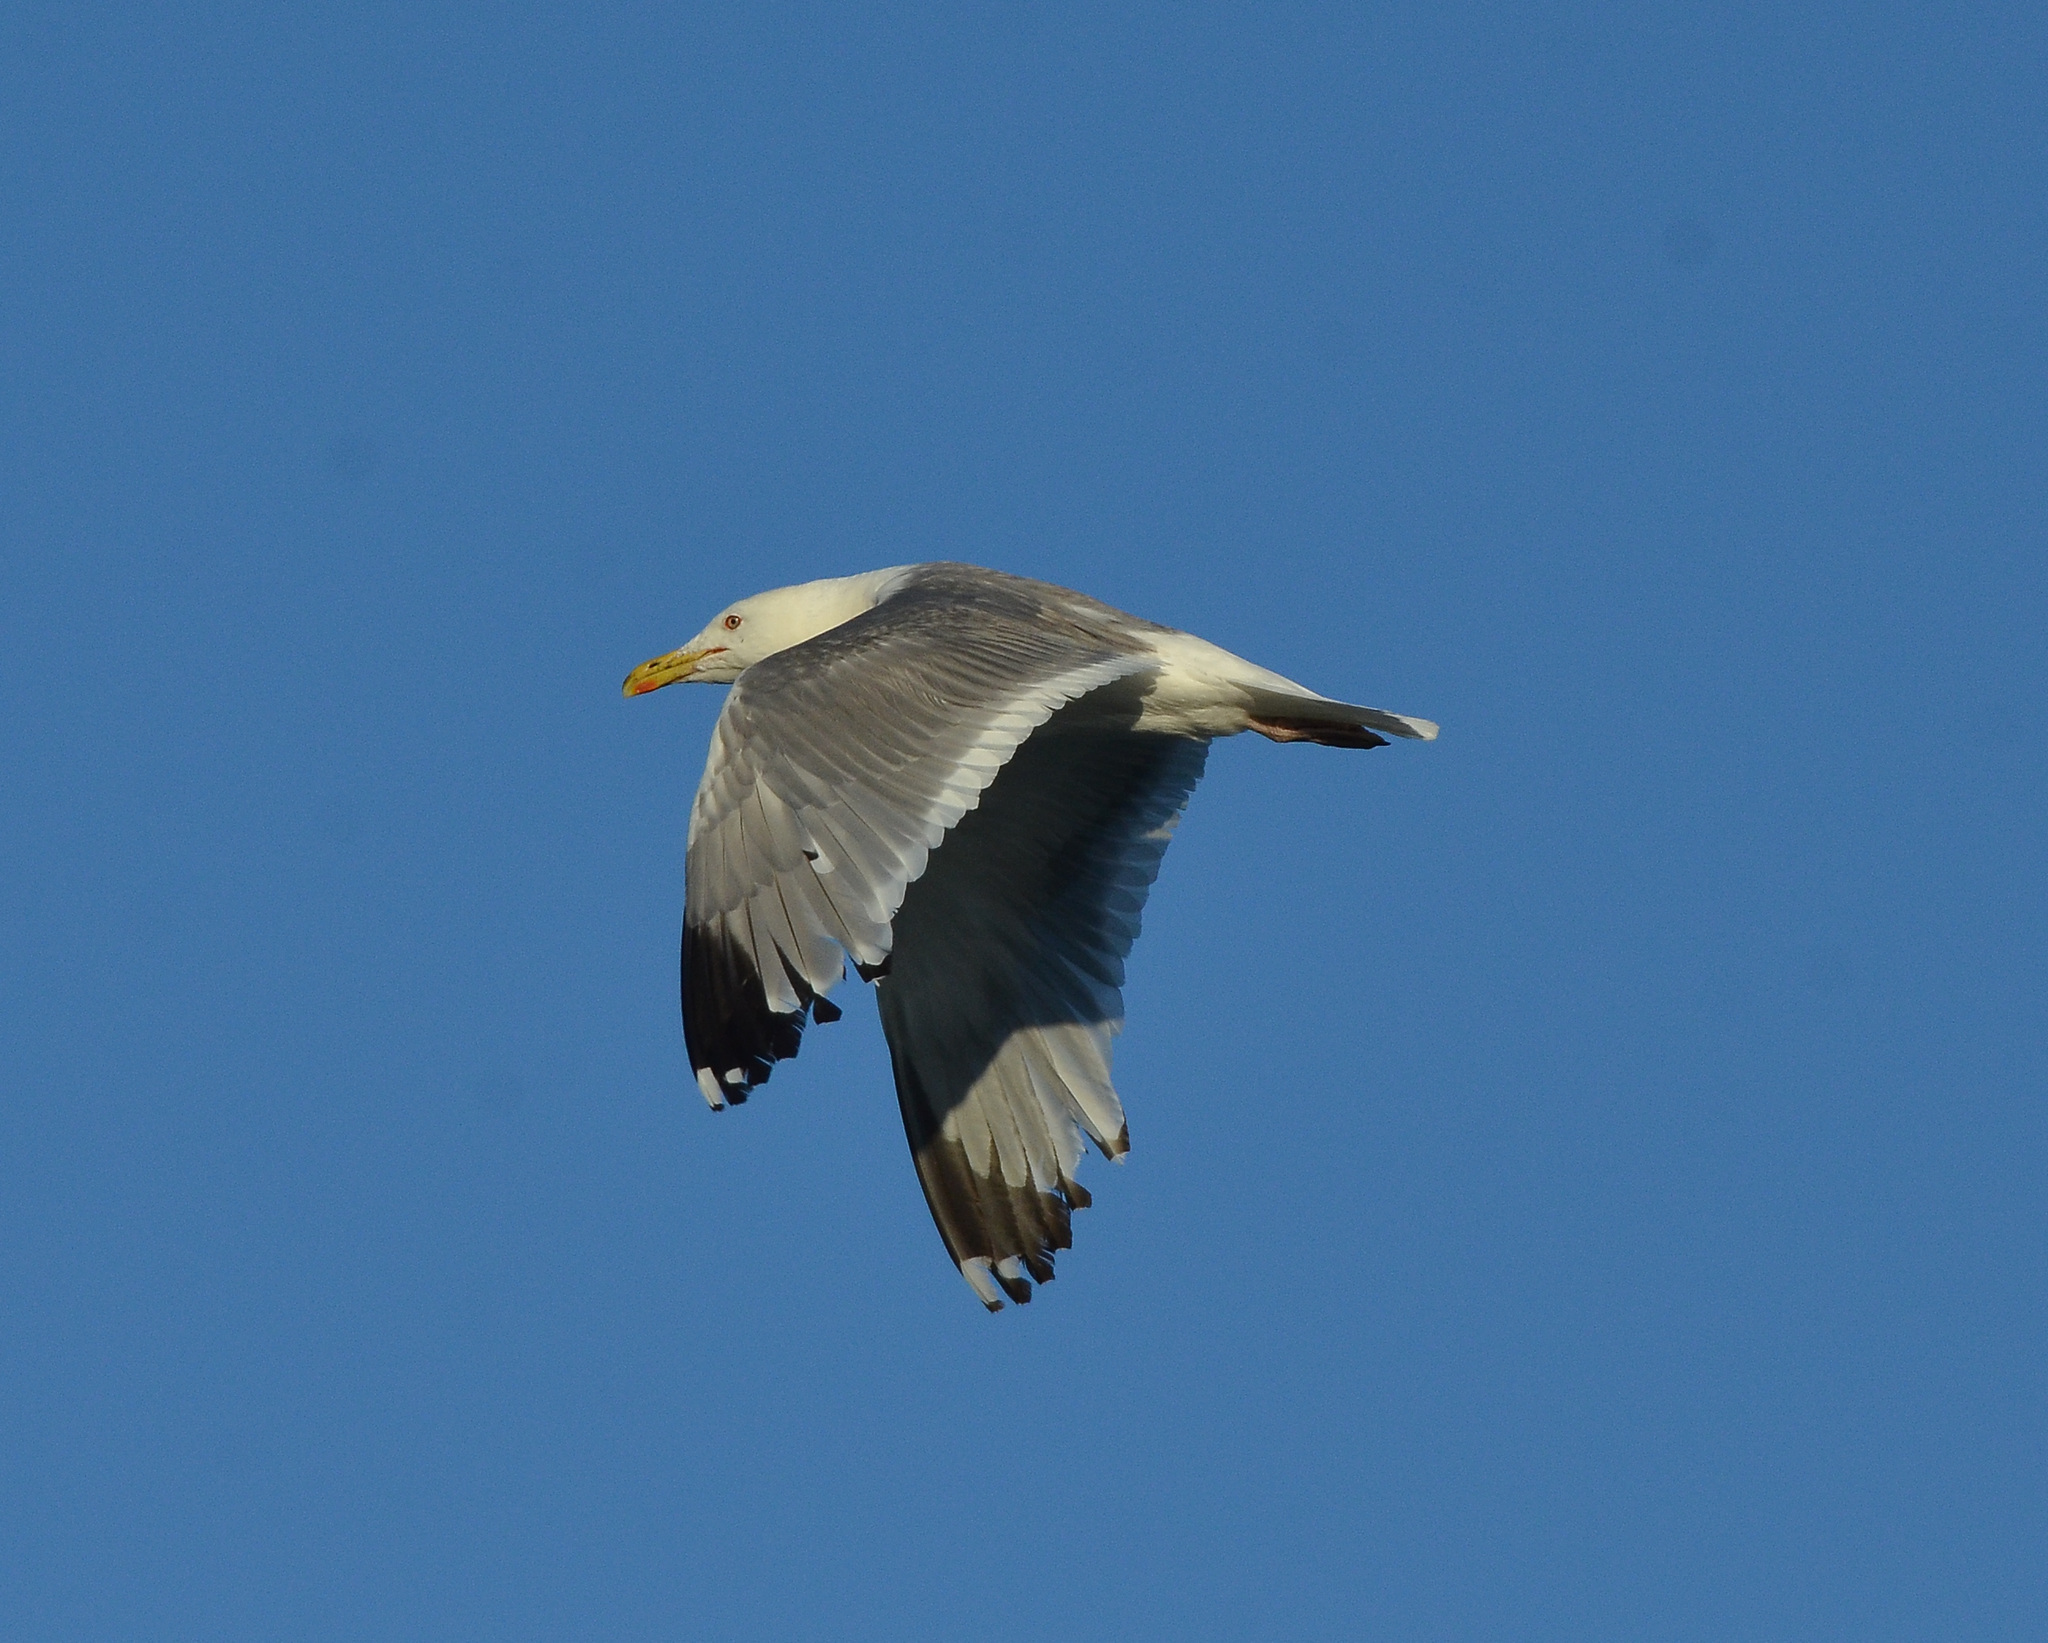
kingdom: Animalia
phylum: Chordata
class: Aves
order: Charadriiformes
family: Laridae
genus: Larus
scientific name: Larus argentatus
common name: Herring gull
